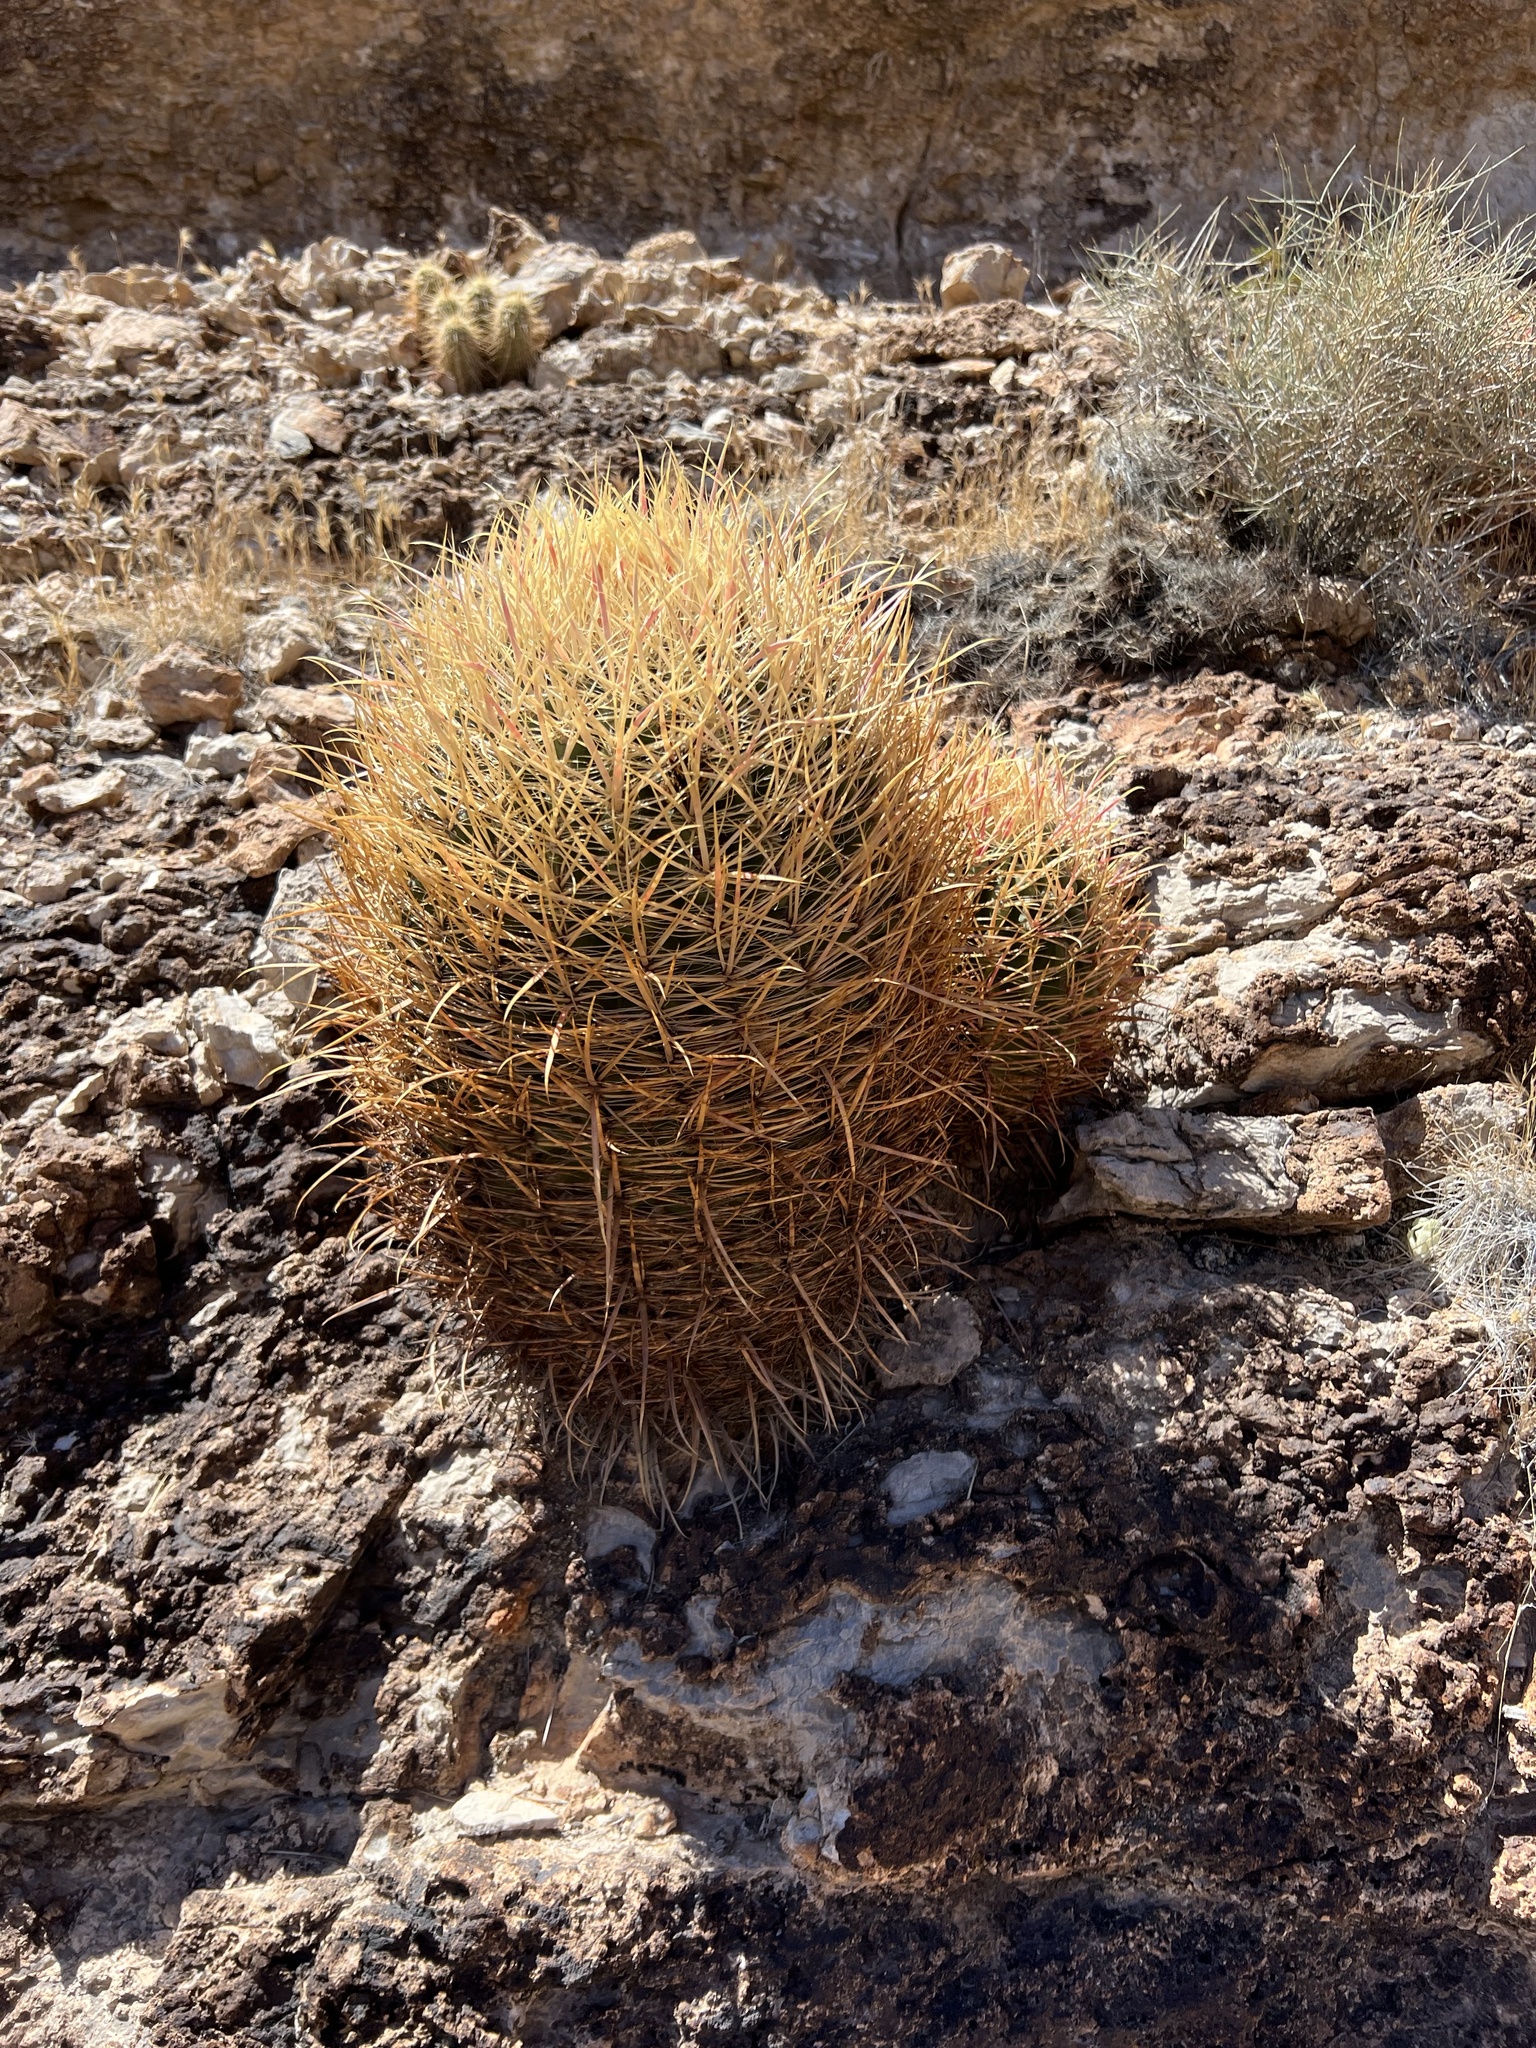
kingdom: Plantae
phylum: Tracheophyta
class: Magnoliopsida
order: Caryophyllales
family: Cactaceae
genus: Ferocactus
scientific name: Ferocactus cylindraceus
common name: California barrel cactus
